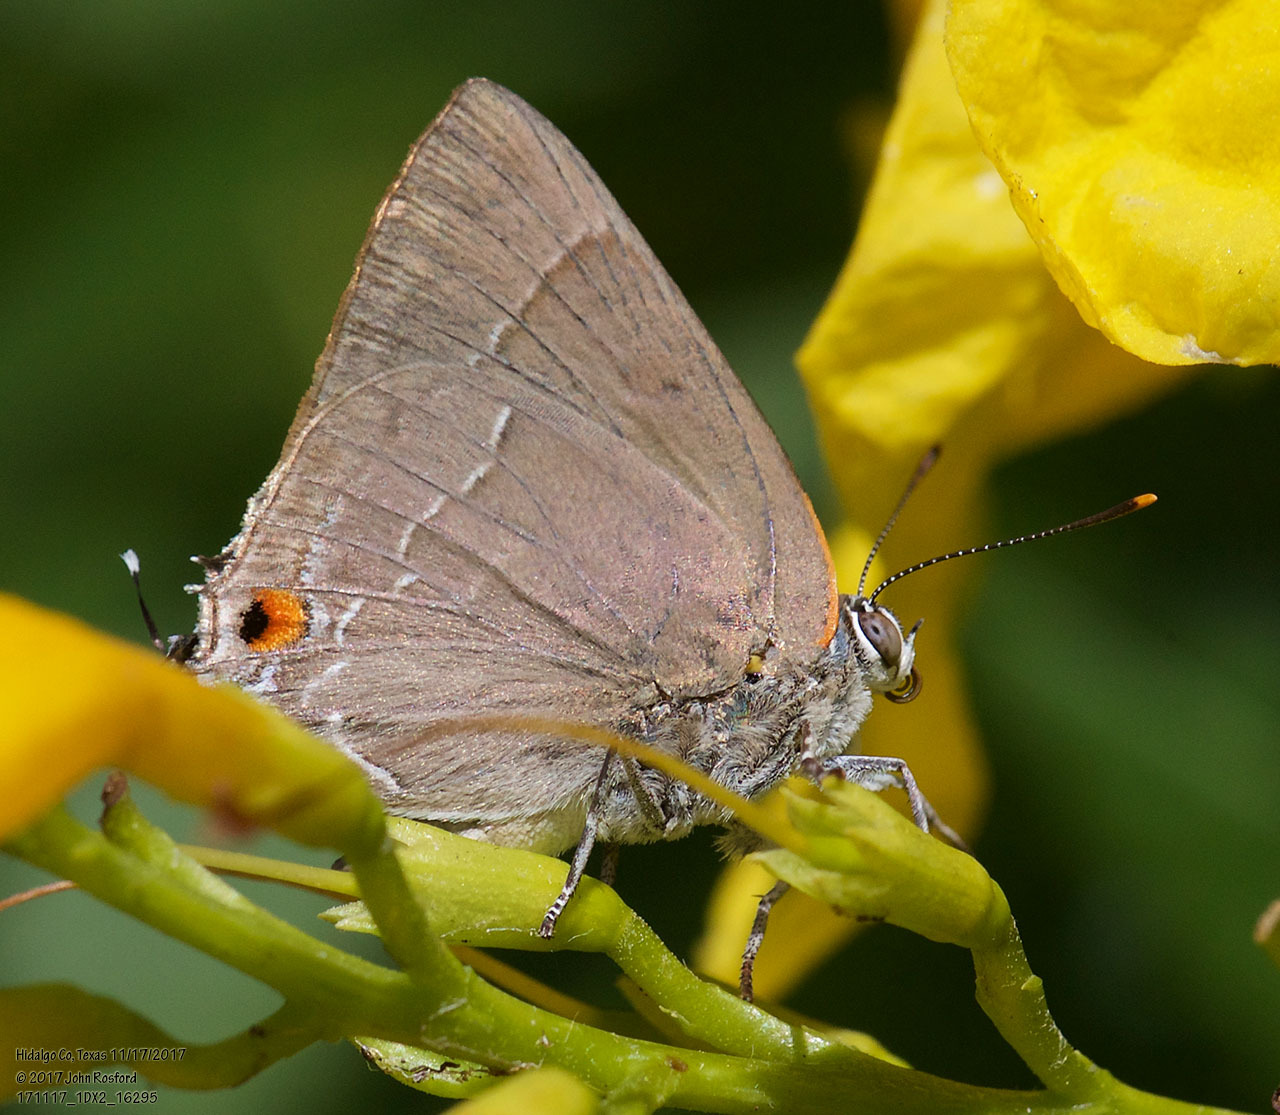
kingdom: Animalia
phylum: Arthropoda
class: Insecta
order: Lepidoptera
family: Lycaenidae
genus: Thecla
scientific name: Thecla marius
